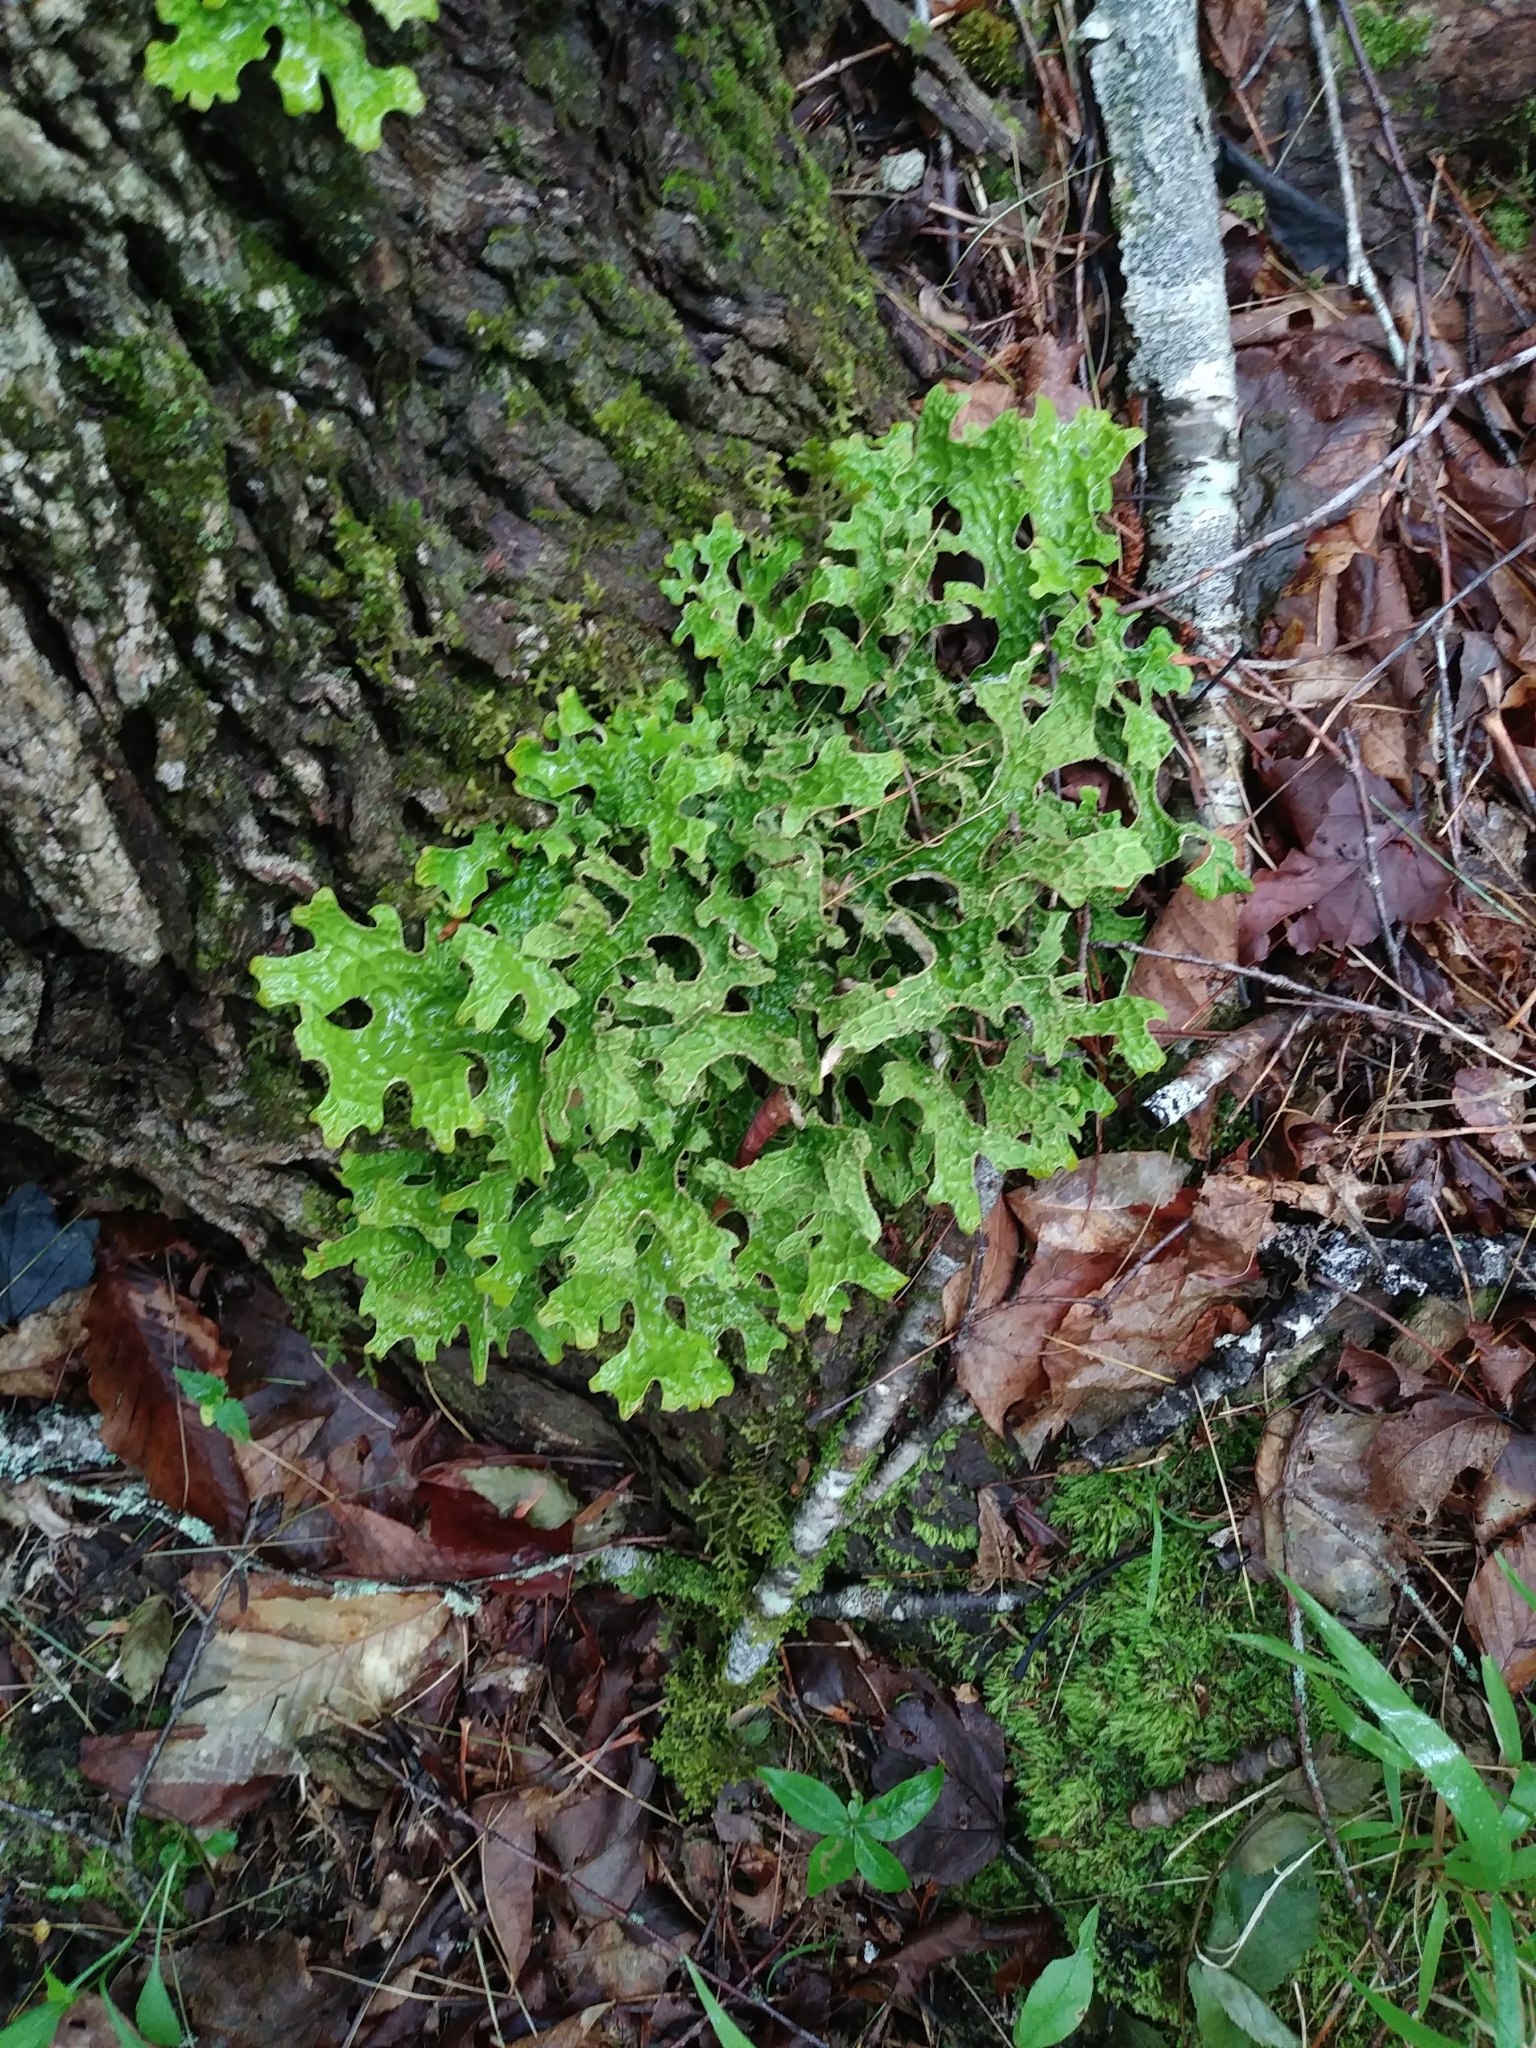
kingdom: Fungi
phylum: Ascomycota
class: Lecanoromycetes
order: Peltigerales
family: Lobariaceae
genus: Lobaria
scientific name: Lobaria pulmonaria
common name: Lungwort
